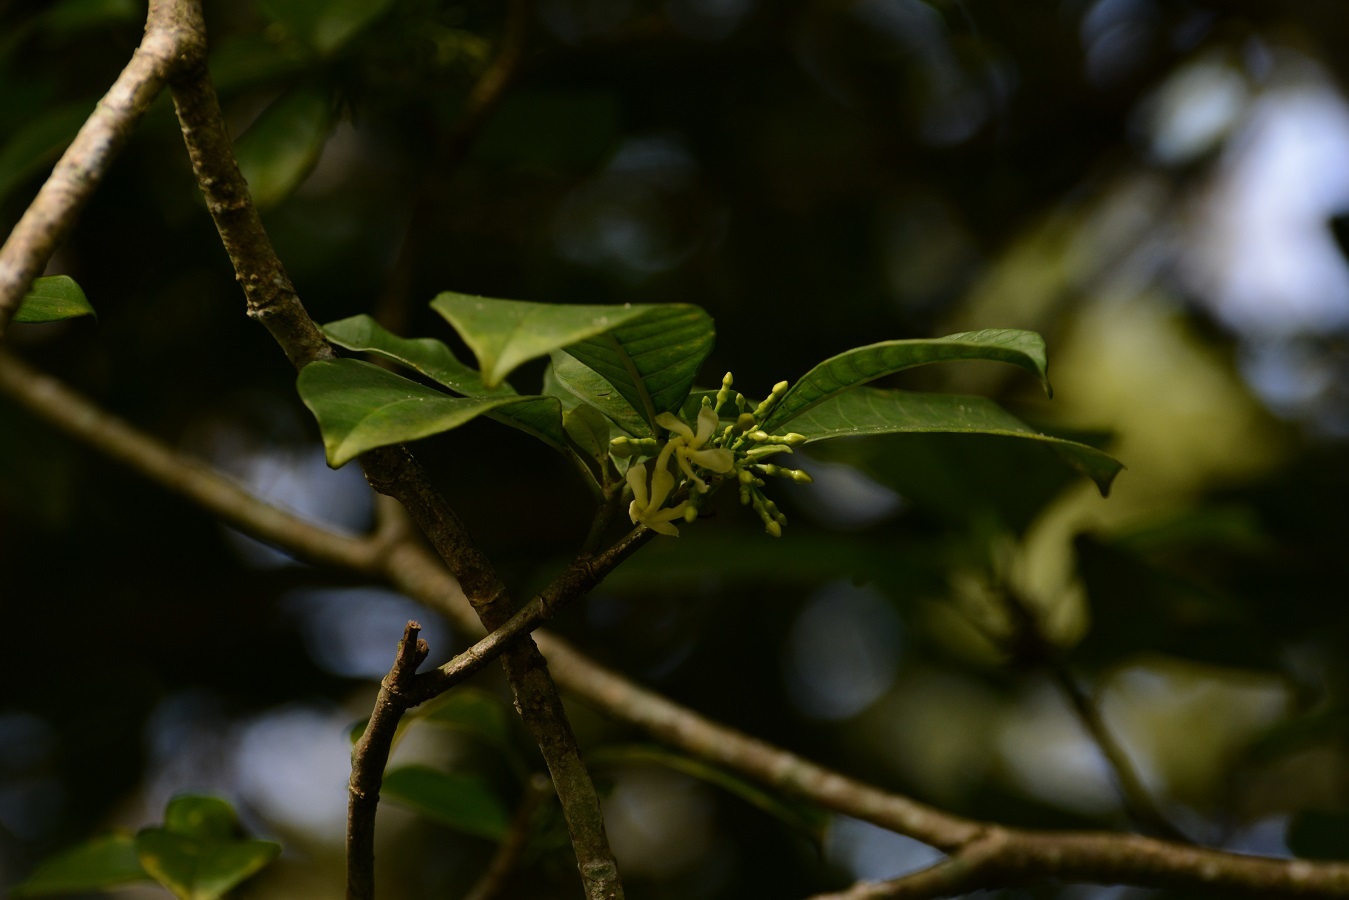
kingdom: Plantae
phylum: Tracheophyta
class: Magnoliopsida
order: Gentianales
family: Apocynaceae
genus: Tabernaemontana
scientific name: Tabernaemontana alba
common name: White milkwood
